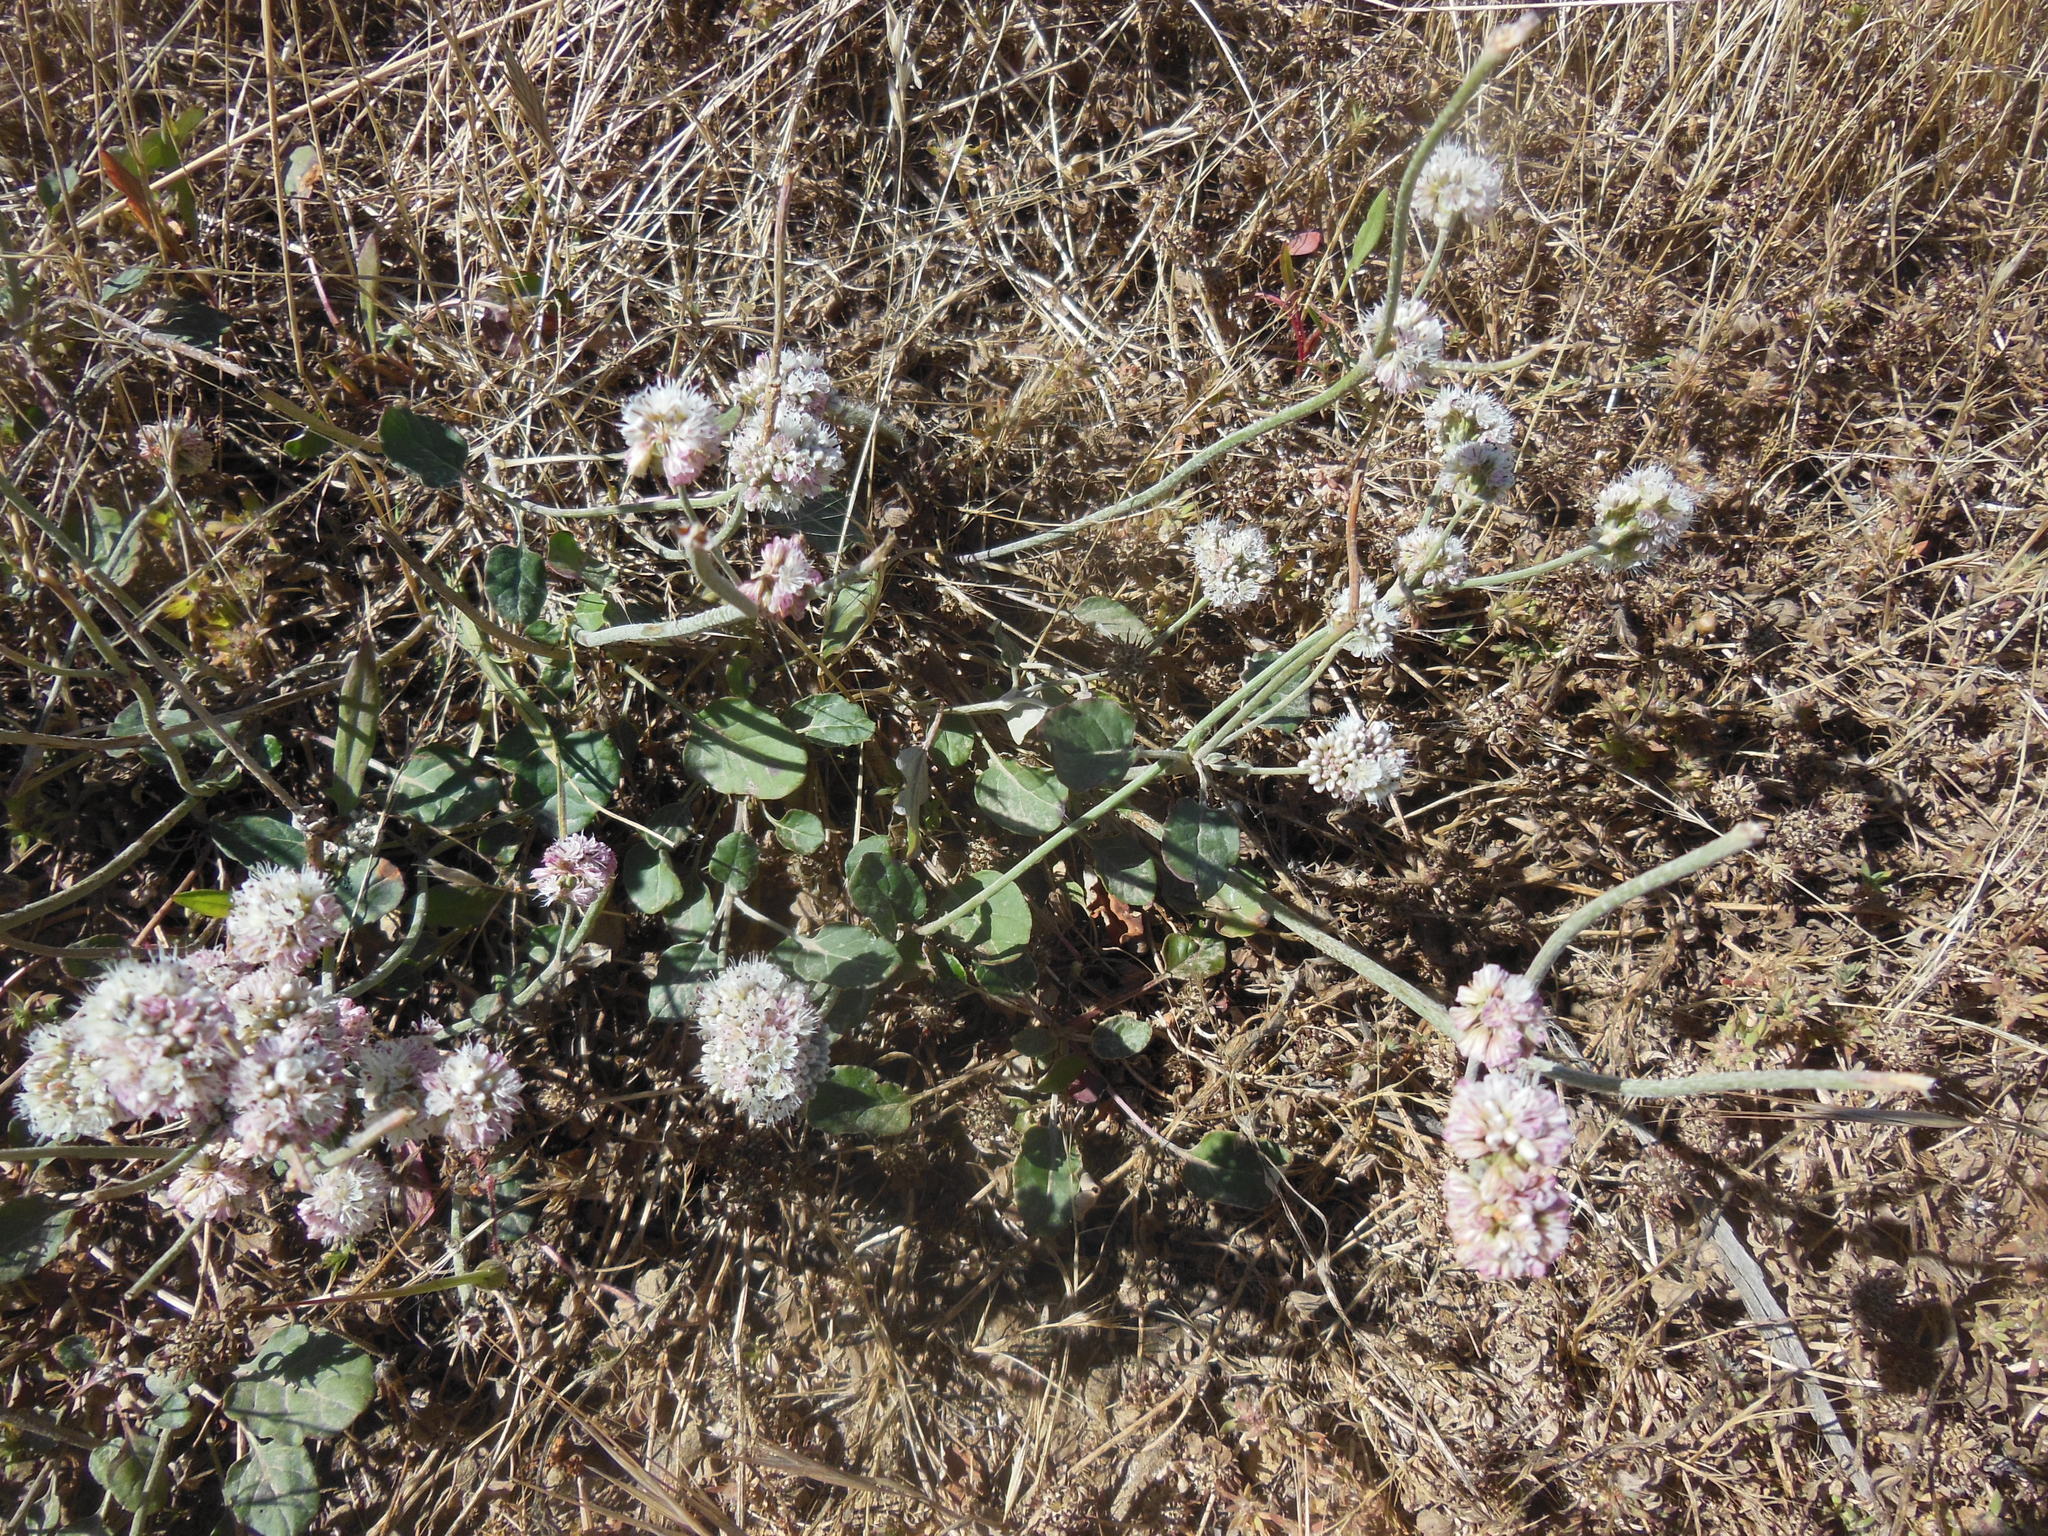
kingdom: Plantae
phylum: Tracheophyta
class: Magnoliopsida
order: Caryophyllales
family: Polygonaceae
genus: Eriogonum
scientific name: Eriogonum latifolium
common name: Seaside wild buckwheat
